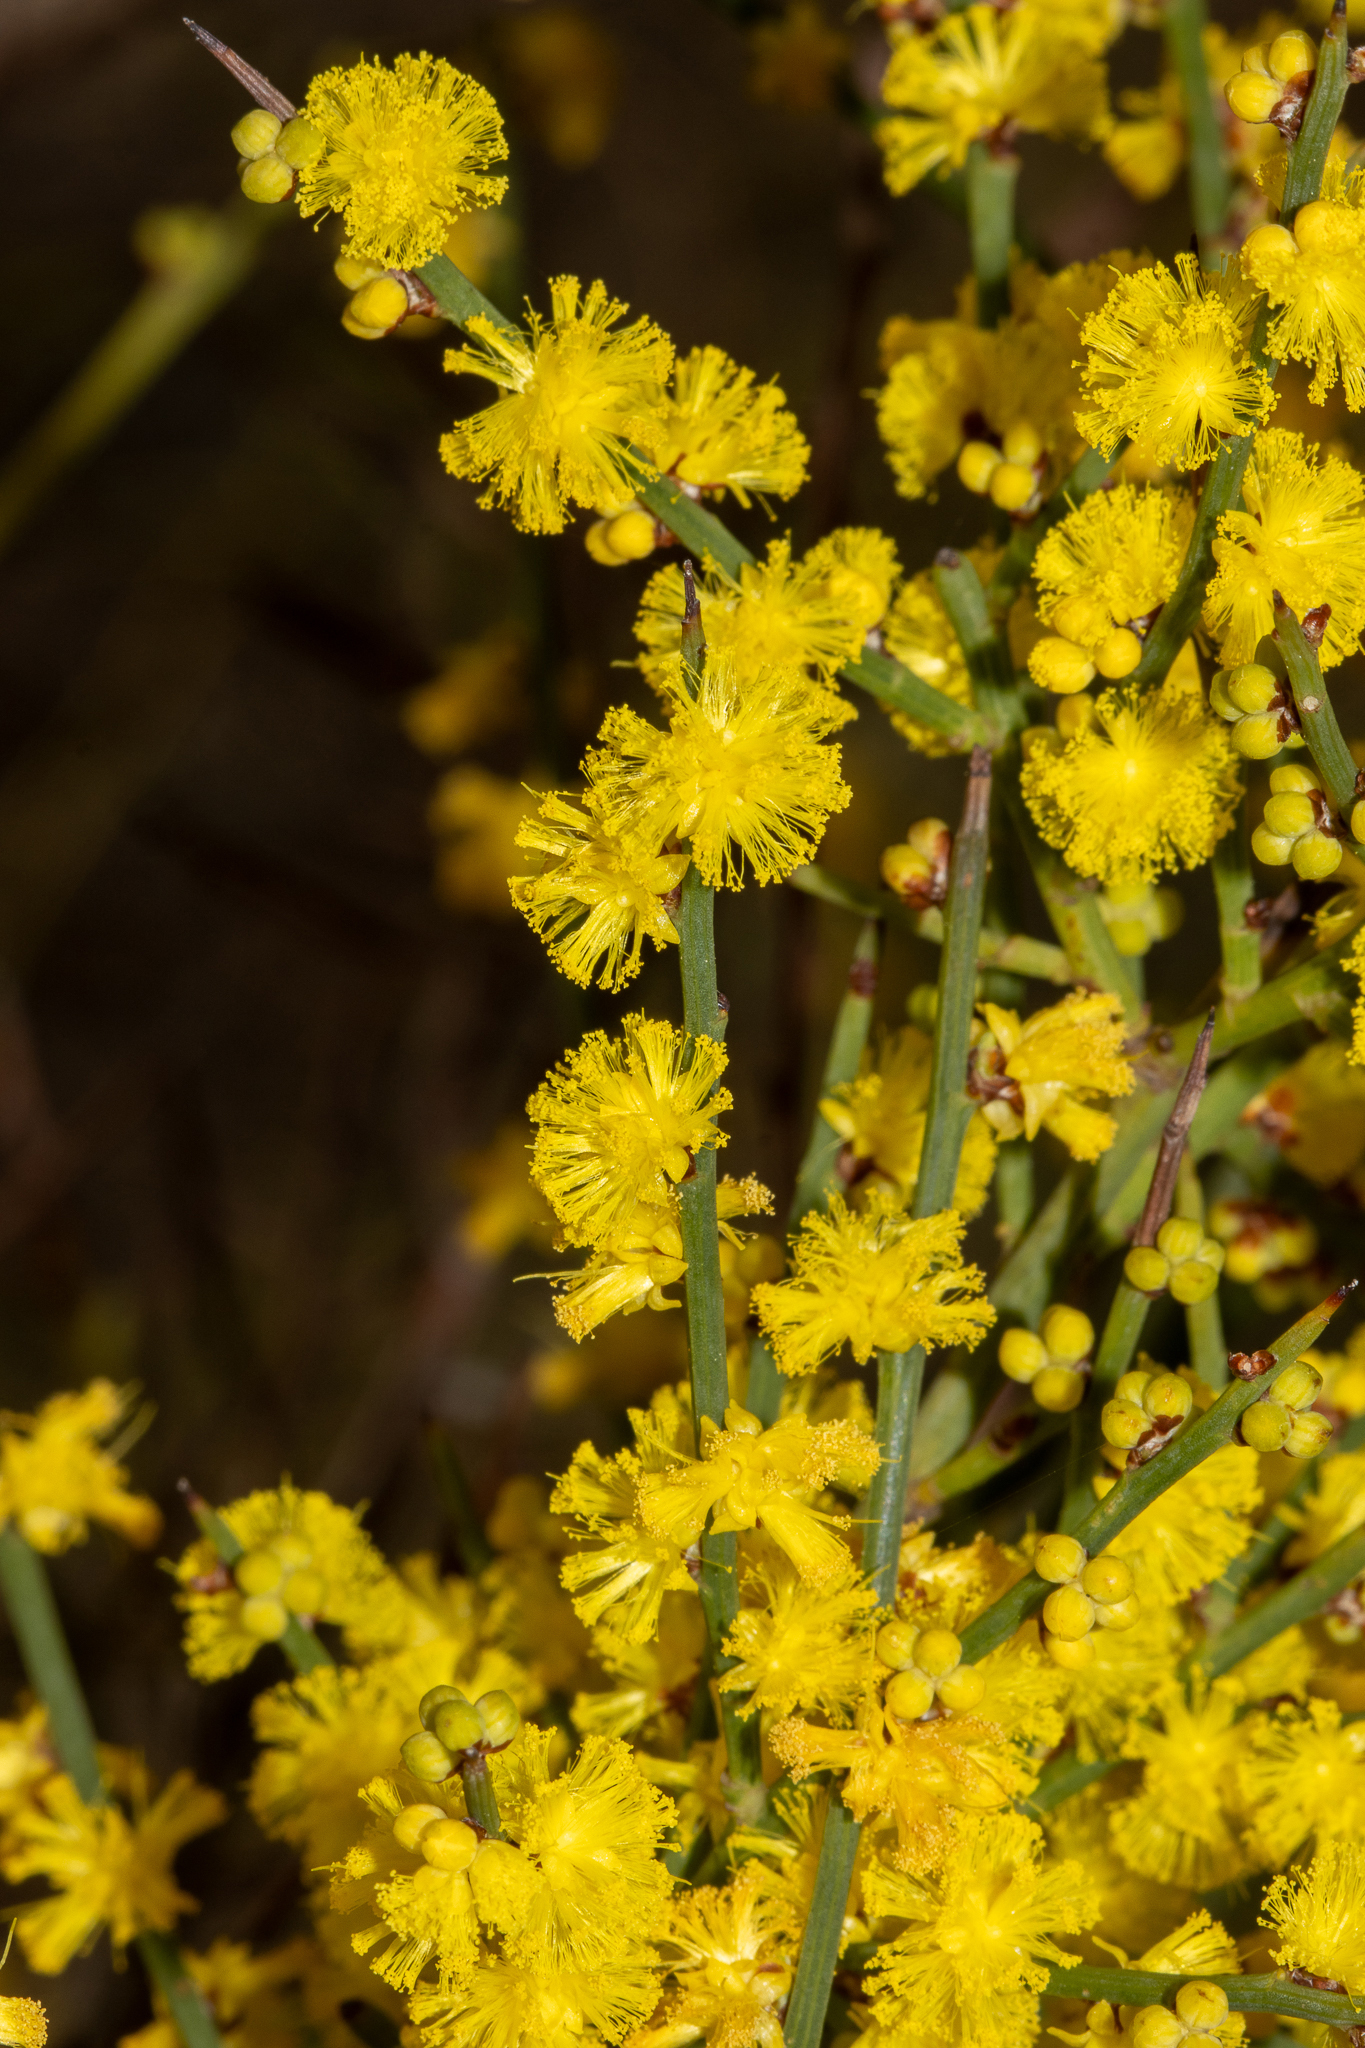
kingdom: Plantae
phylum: Tracheophyta
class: Magnoliopsida
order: Fabales
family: Fabaceae
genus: Acacia
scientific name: Acacia spinescens
